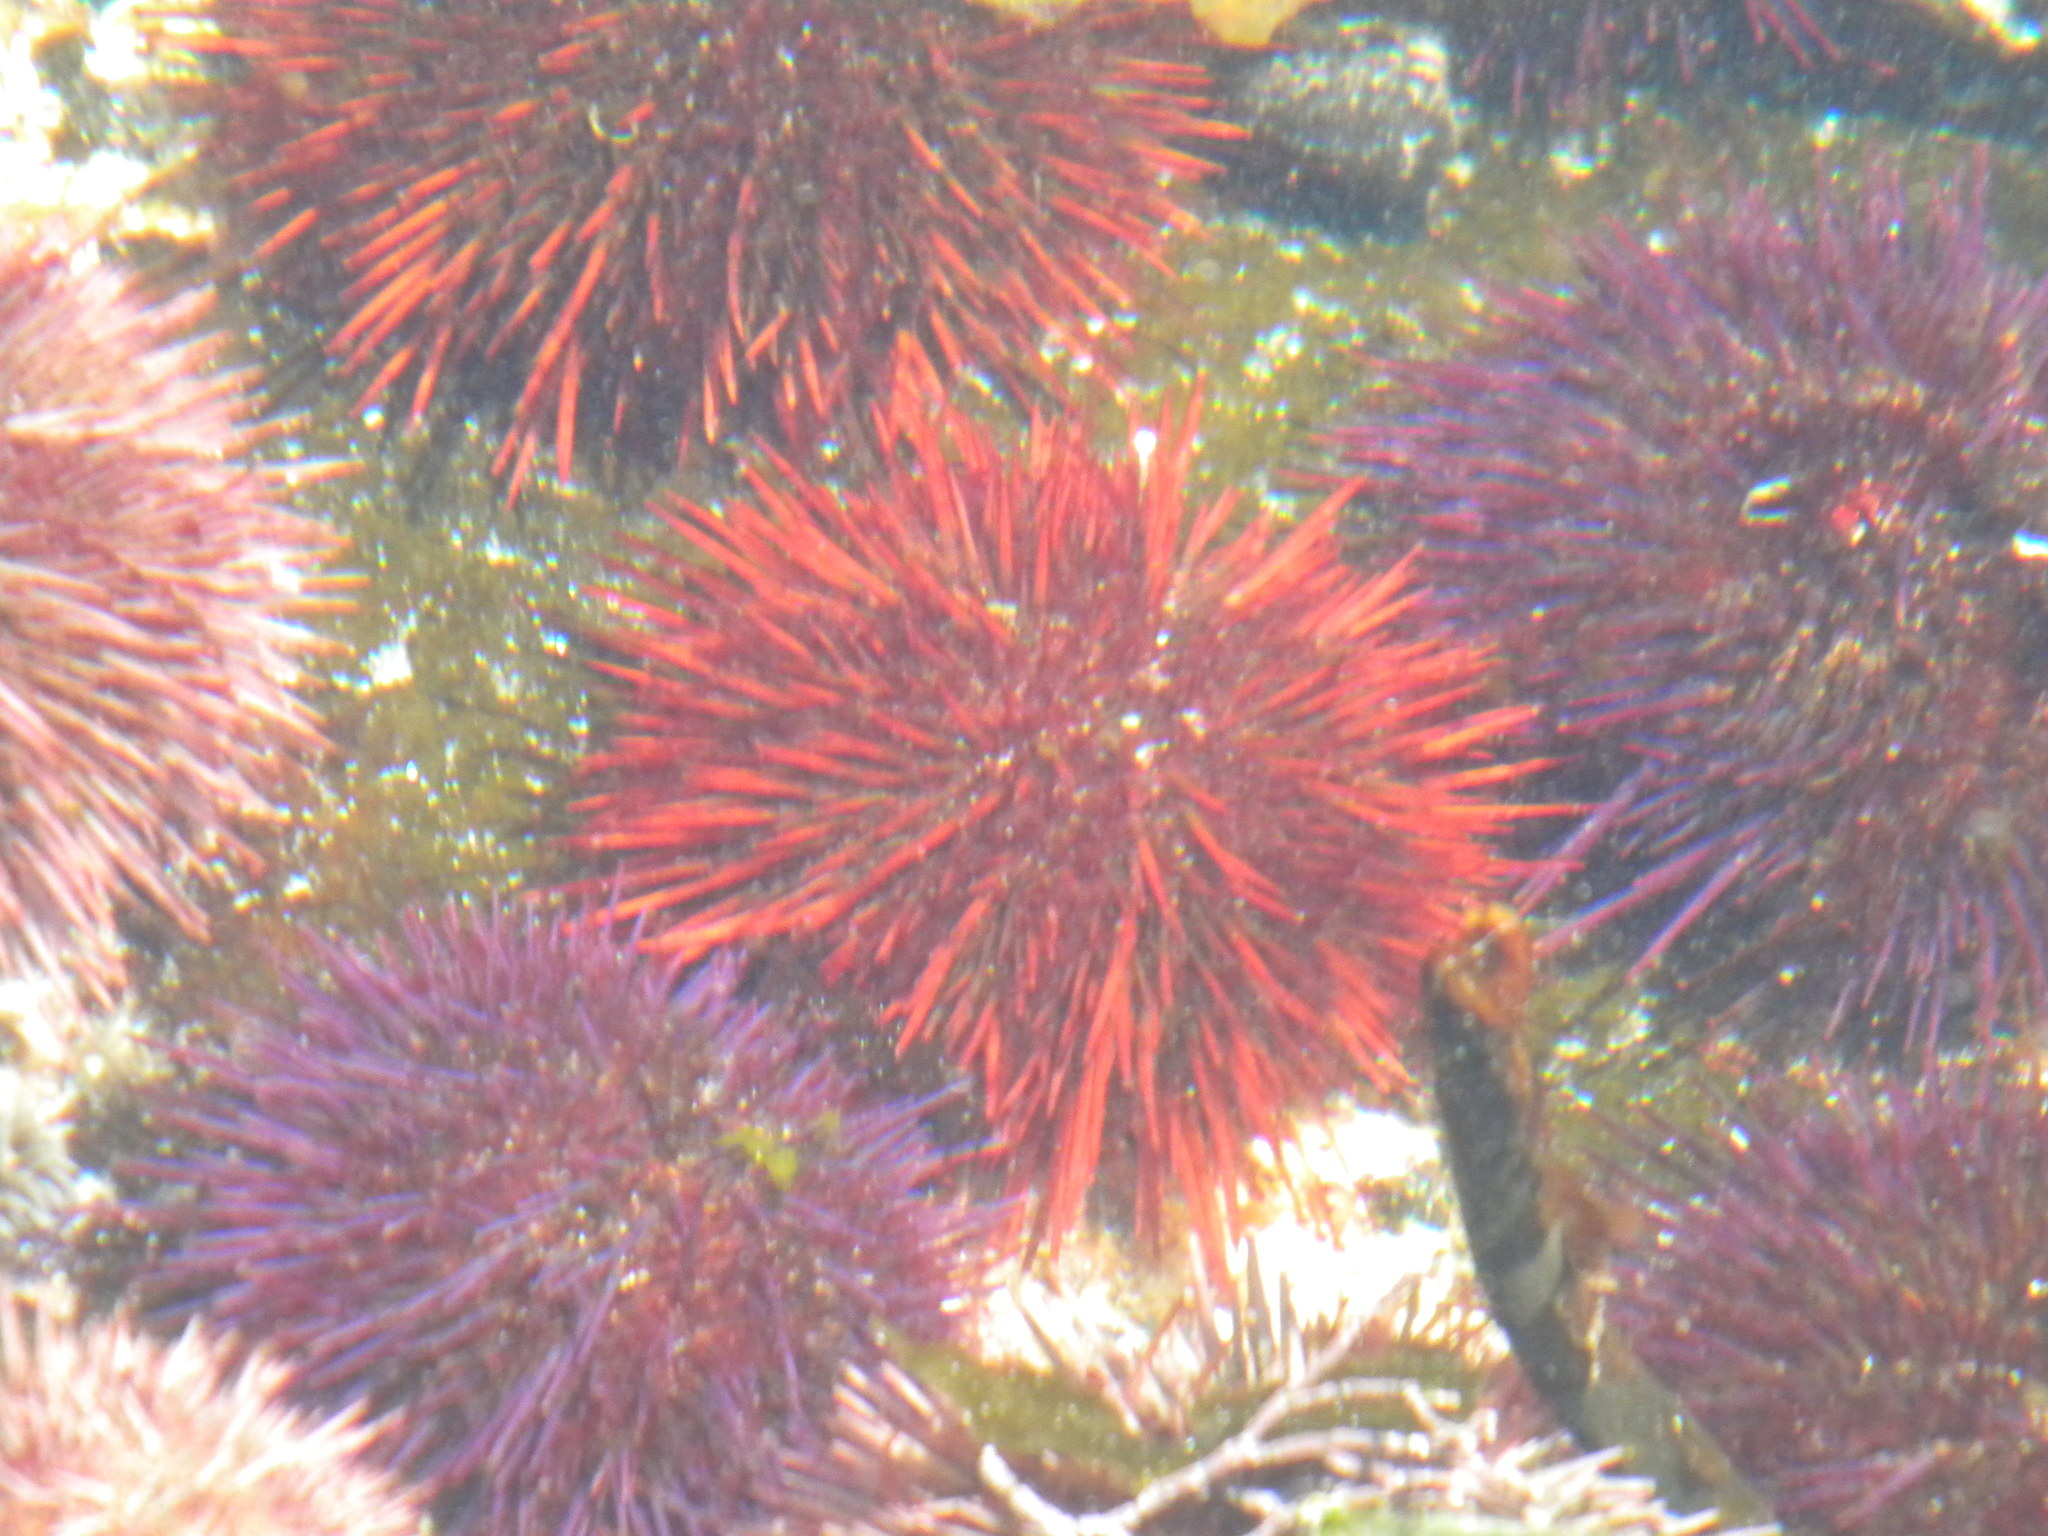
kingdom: Animalia
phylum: Echinodermata
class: Echinoidea
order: Camarodonta
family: Parechinidae
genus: Parechinus
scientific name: Parechinus angulosus
